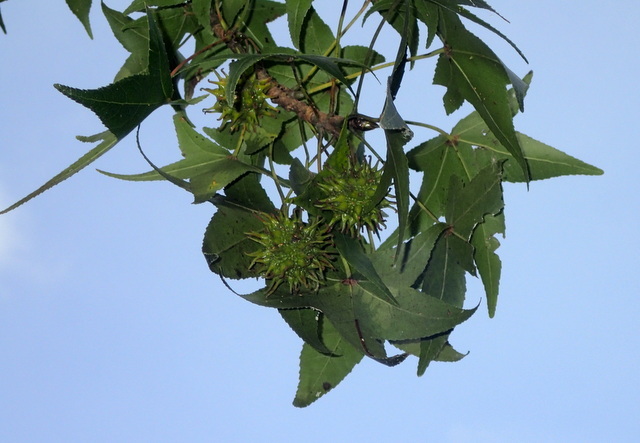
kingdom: Plantae
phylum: Tracheophyta
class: Magnoliopsida
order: Saxifragales
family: Altingiaceae
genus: Liquidambar
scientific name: Liquidambar styraciflua
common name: Sweet gum
